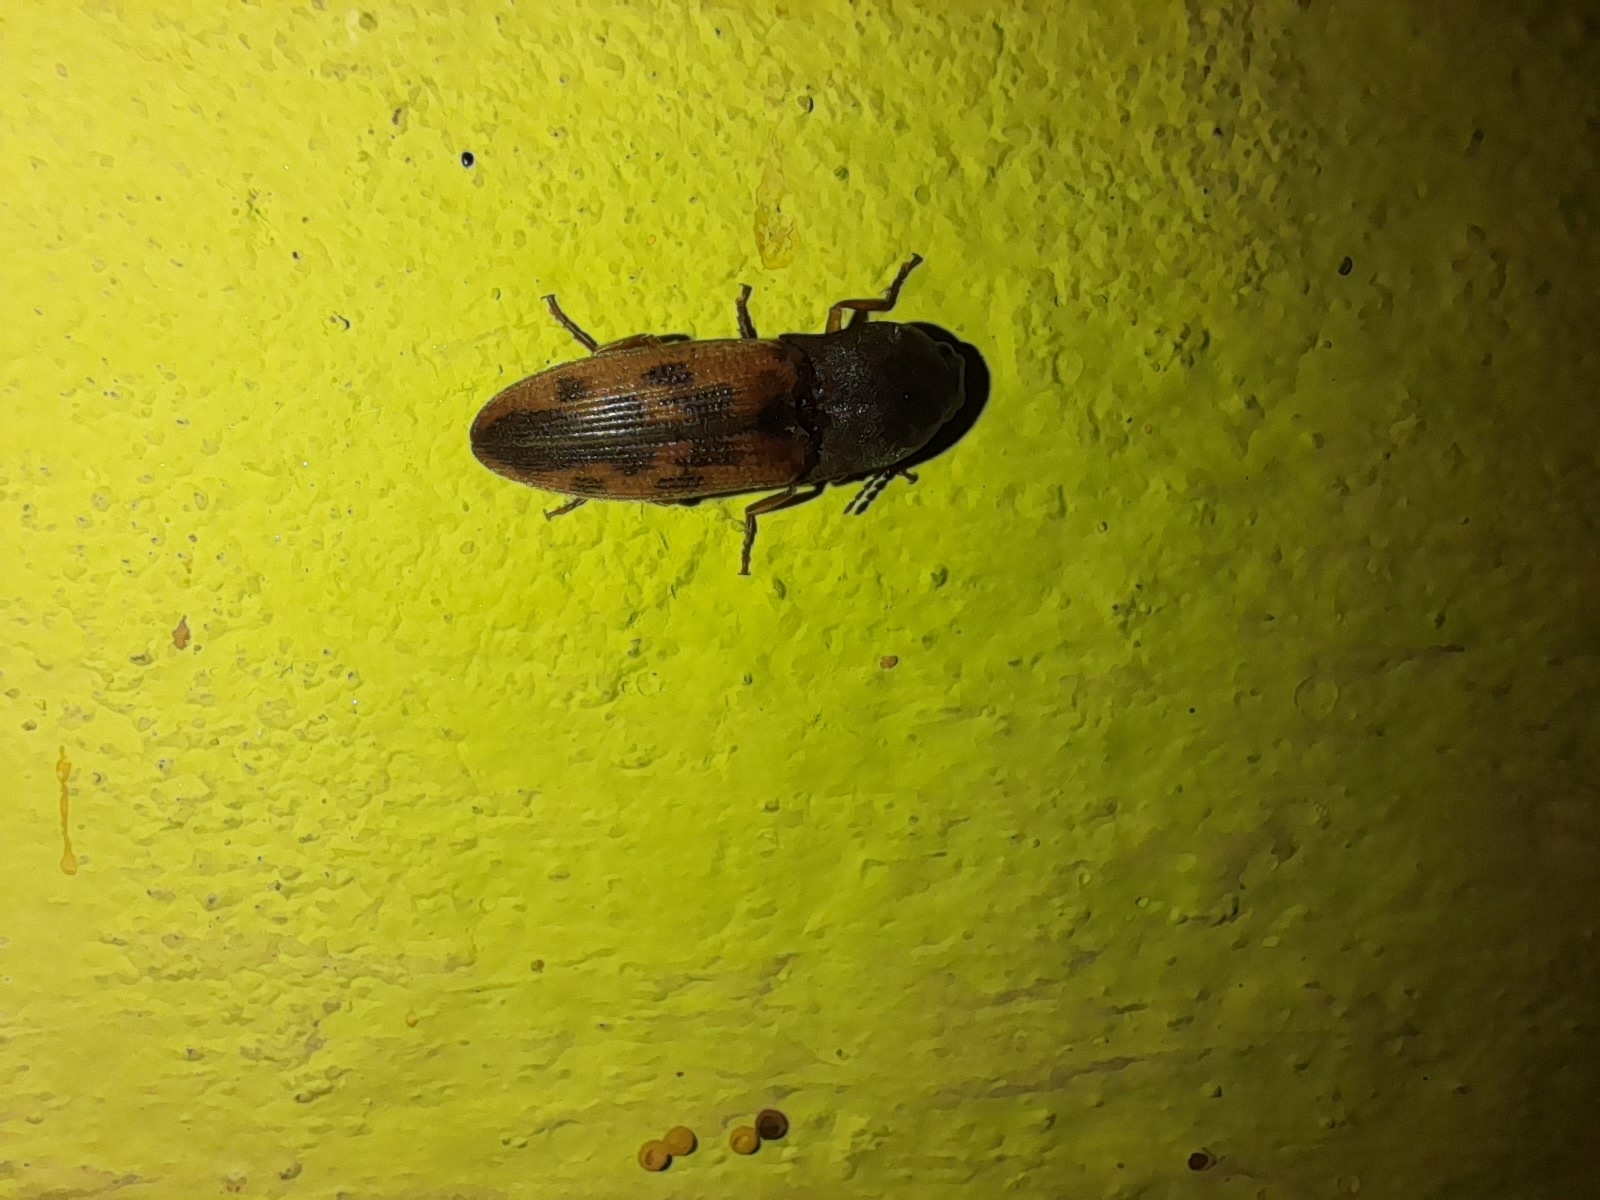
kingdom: Animalia
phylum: Arthropoda
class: Insecta
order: Coleoptera
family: Elateridae
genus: Monocrepidius
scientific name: Monocrepidius
